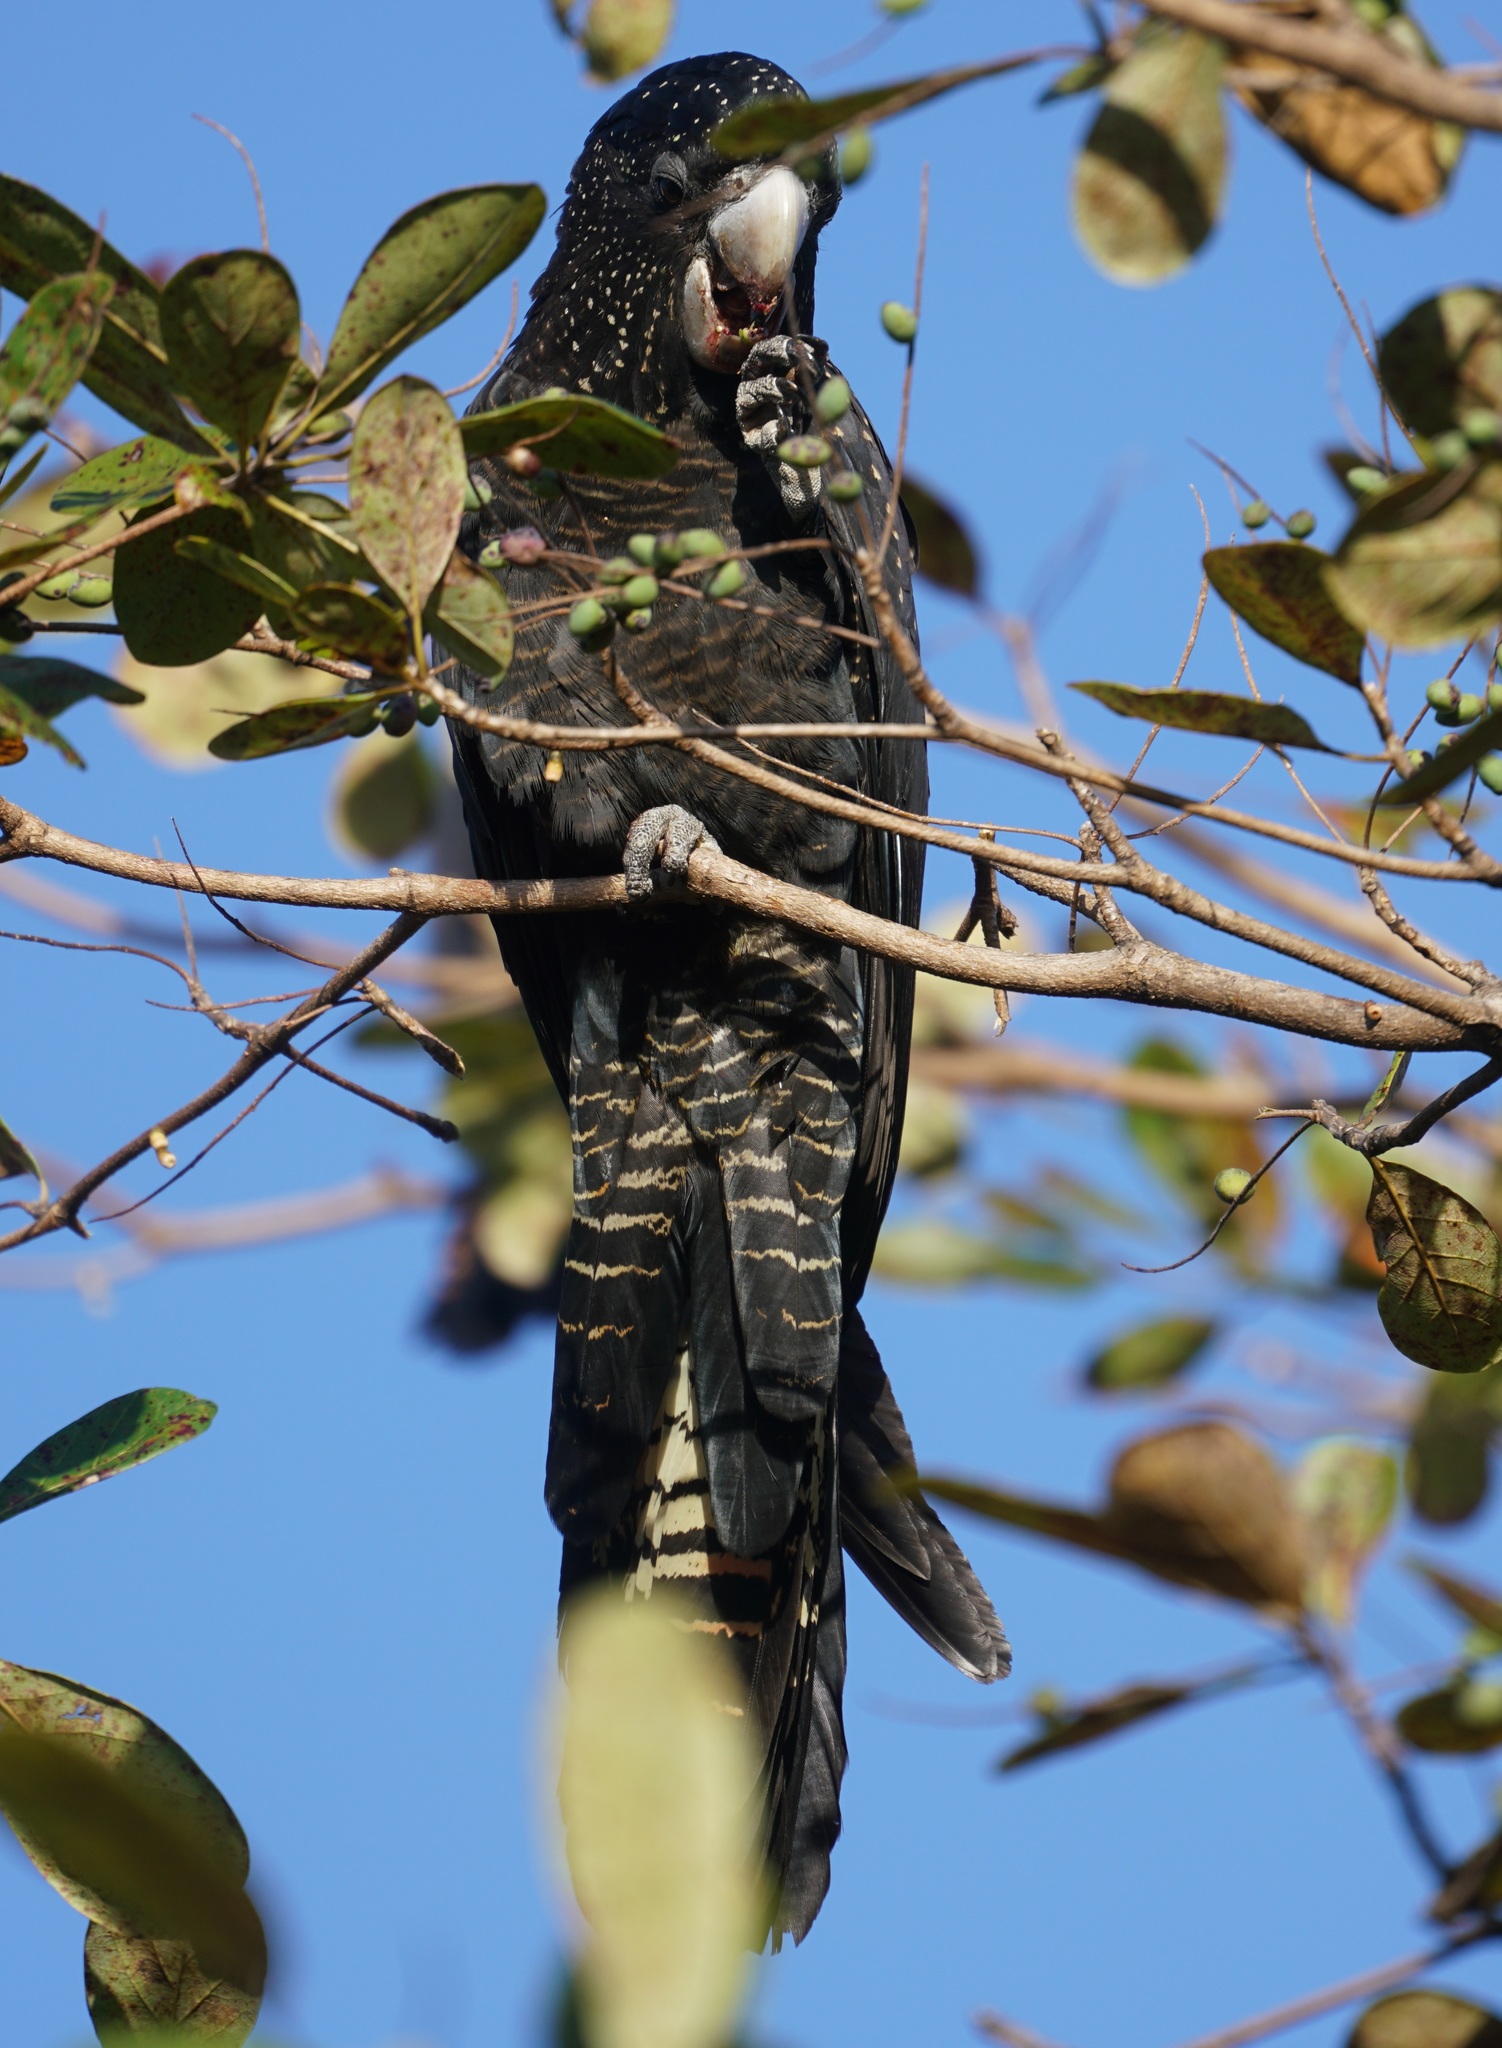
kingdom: Animalia
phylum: Chordata
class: Aves
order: Psittaciformes
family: Psittacidae
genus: Calyptorhynchus
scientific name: Calyptorhynchus banksii
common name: Red-tailed black cockatoo
